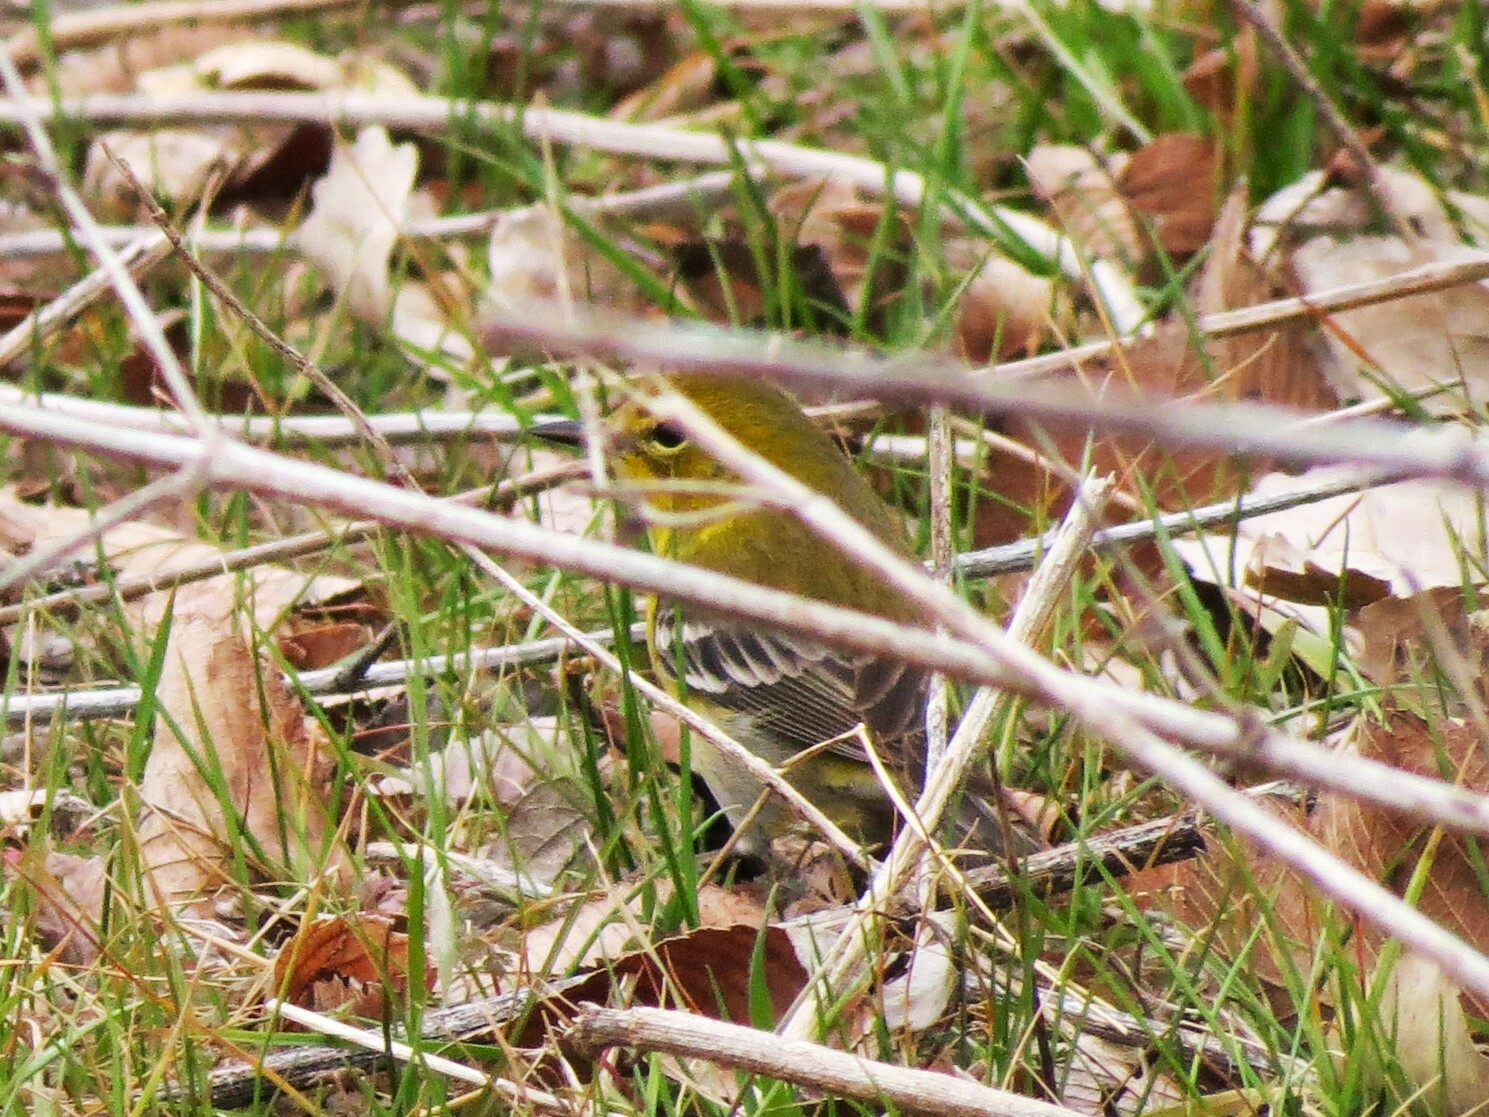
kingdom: Animalia
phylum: Chordata
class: Aves
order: Passeriformes
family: Parulidae
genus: Setophaga
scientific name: Setophaga pinus
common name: Pine warbler
